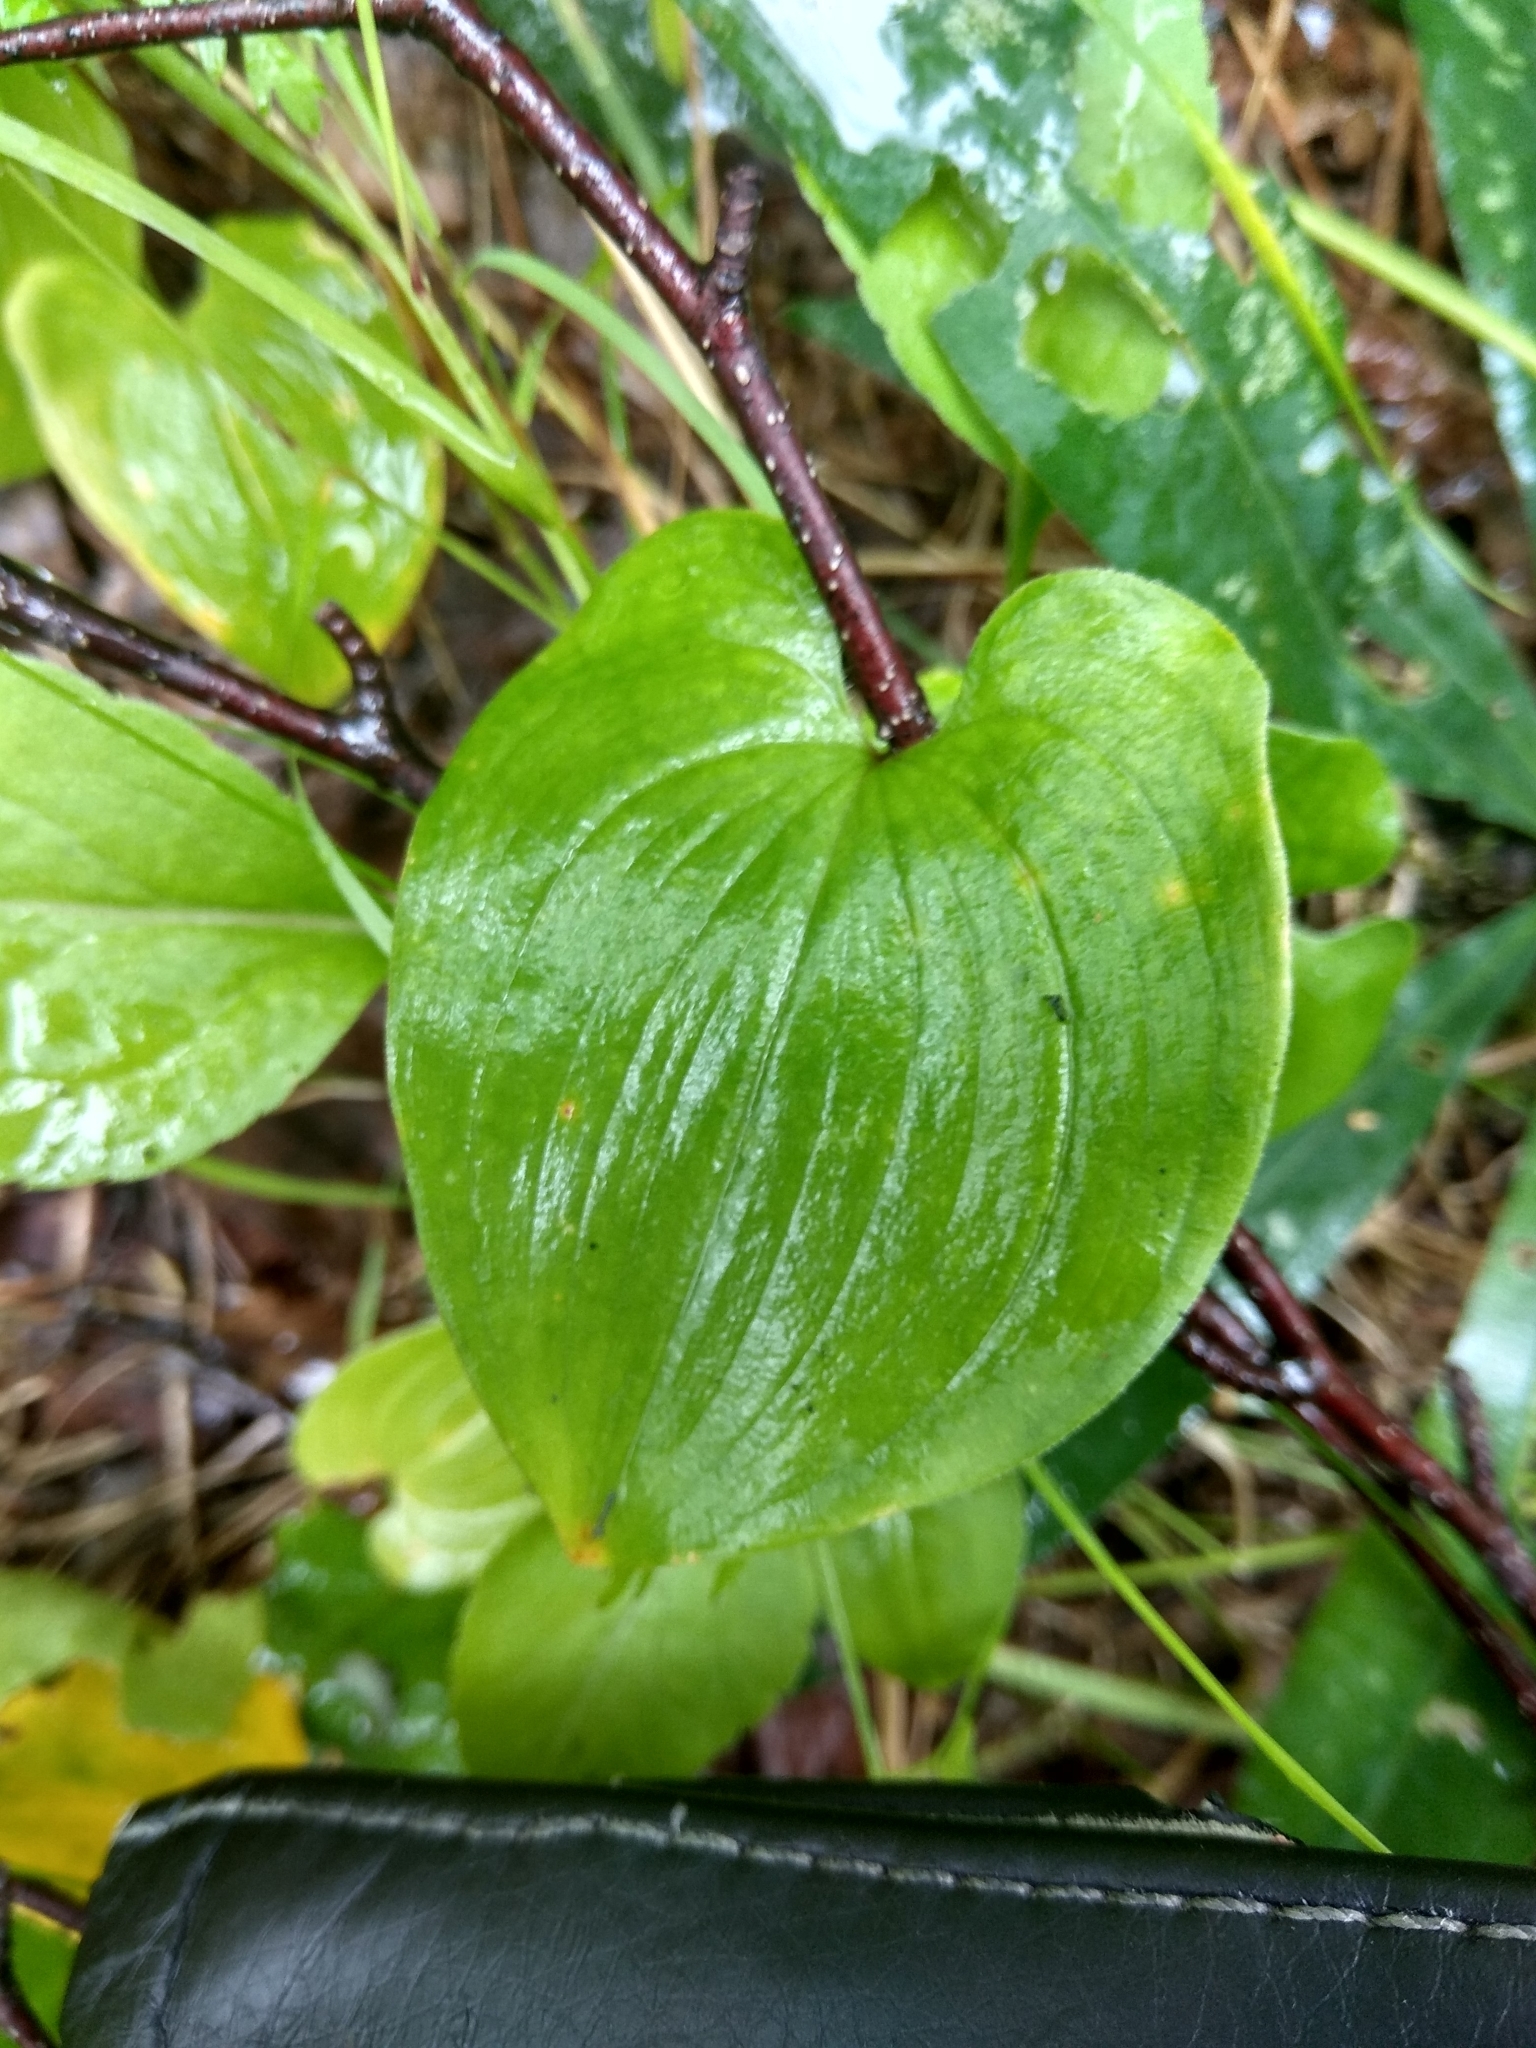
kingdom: Plantae
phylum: Tracheophyta
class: Liliopsida
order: Asparagales
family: Asparagaceae
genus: Maianthemum
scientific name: Maianthemum bifolium
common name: May lily
